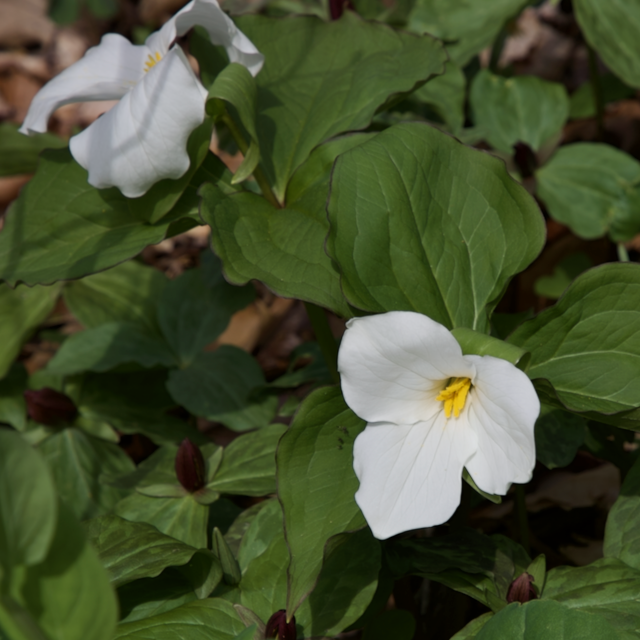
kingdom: Plantae
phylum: Tracheophyta
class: Liliopsida
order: Liliales
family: Melanthiaceae
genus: Trillium
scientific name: Trillium grandiflorum
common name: Great white trillium
